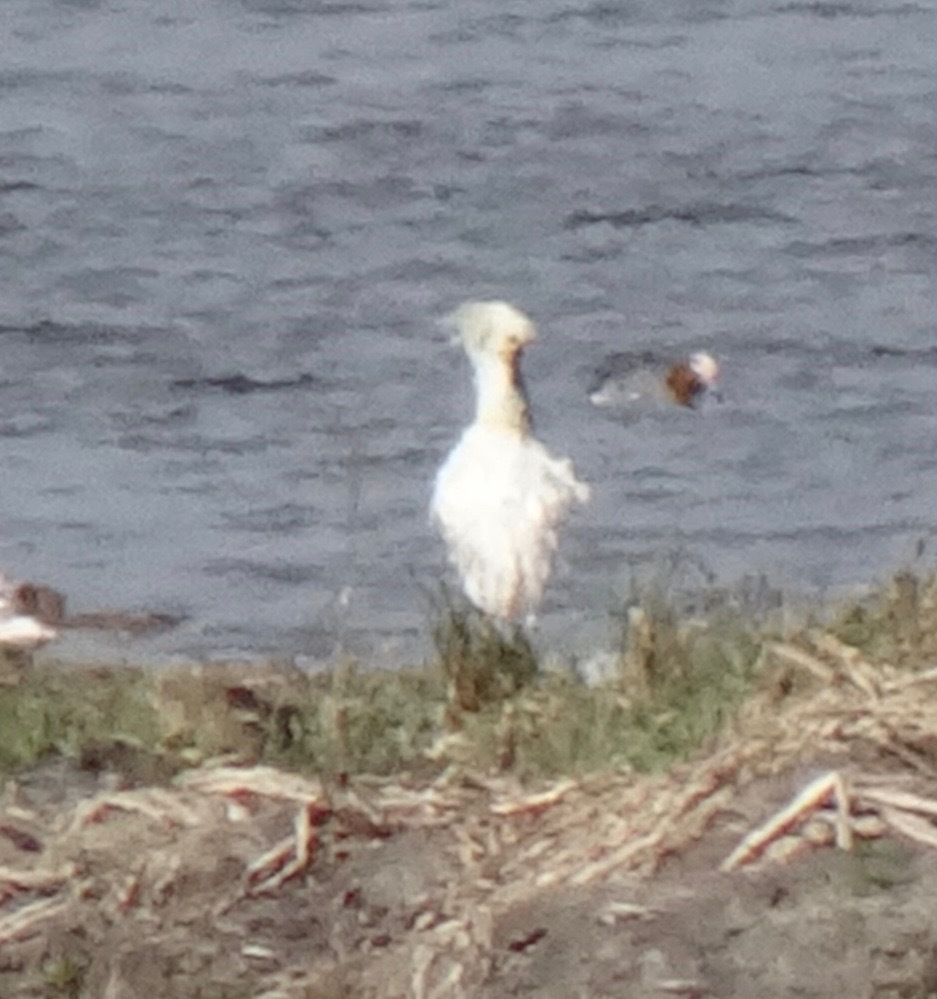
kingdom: Animalia
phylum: Chordata
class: Aves
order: Pelecaniformes
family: Threskiornithidae
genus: Platalea
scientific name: Platalea leucorodia
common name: Eurasian spoonbill
